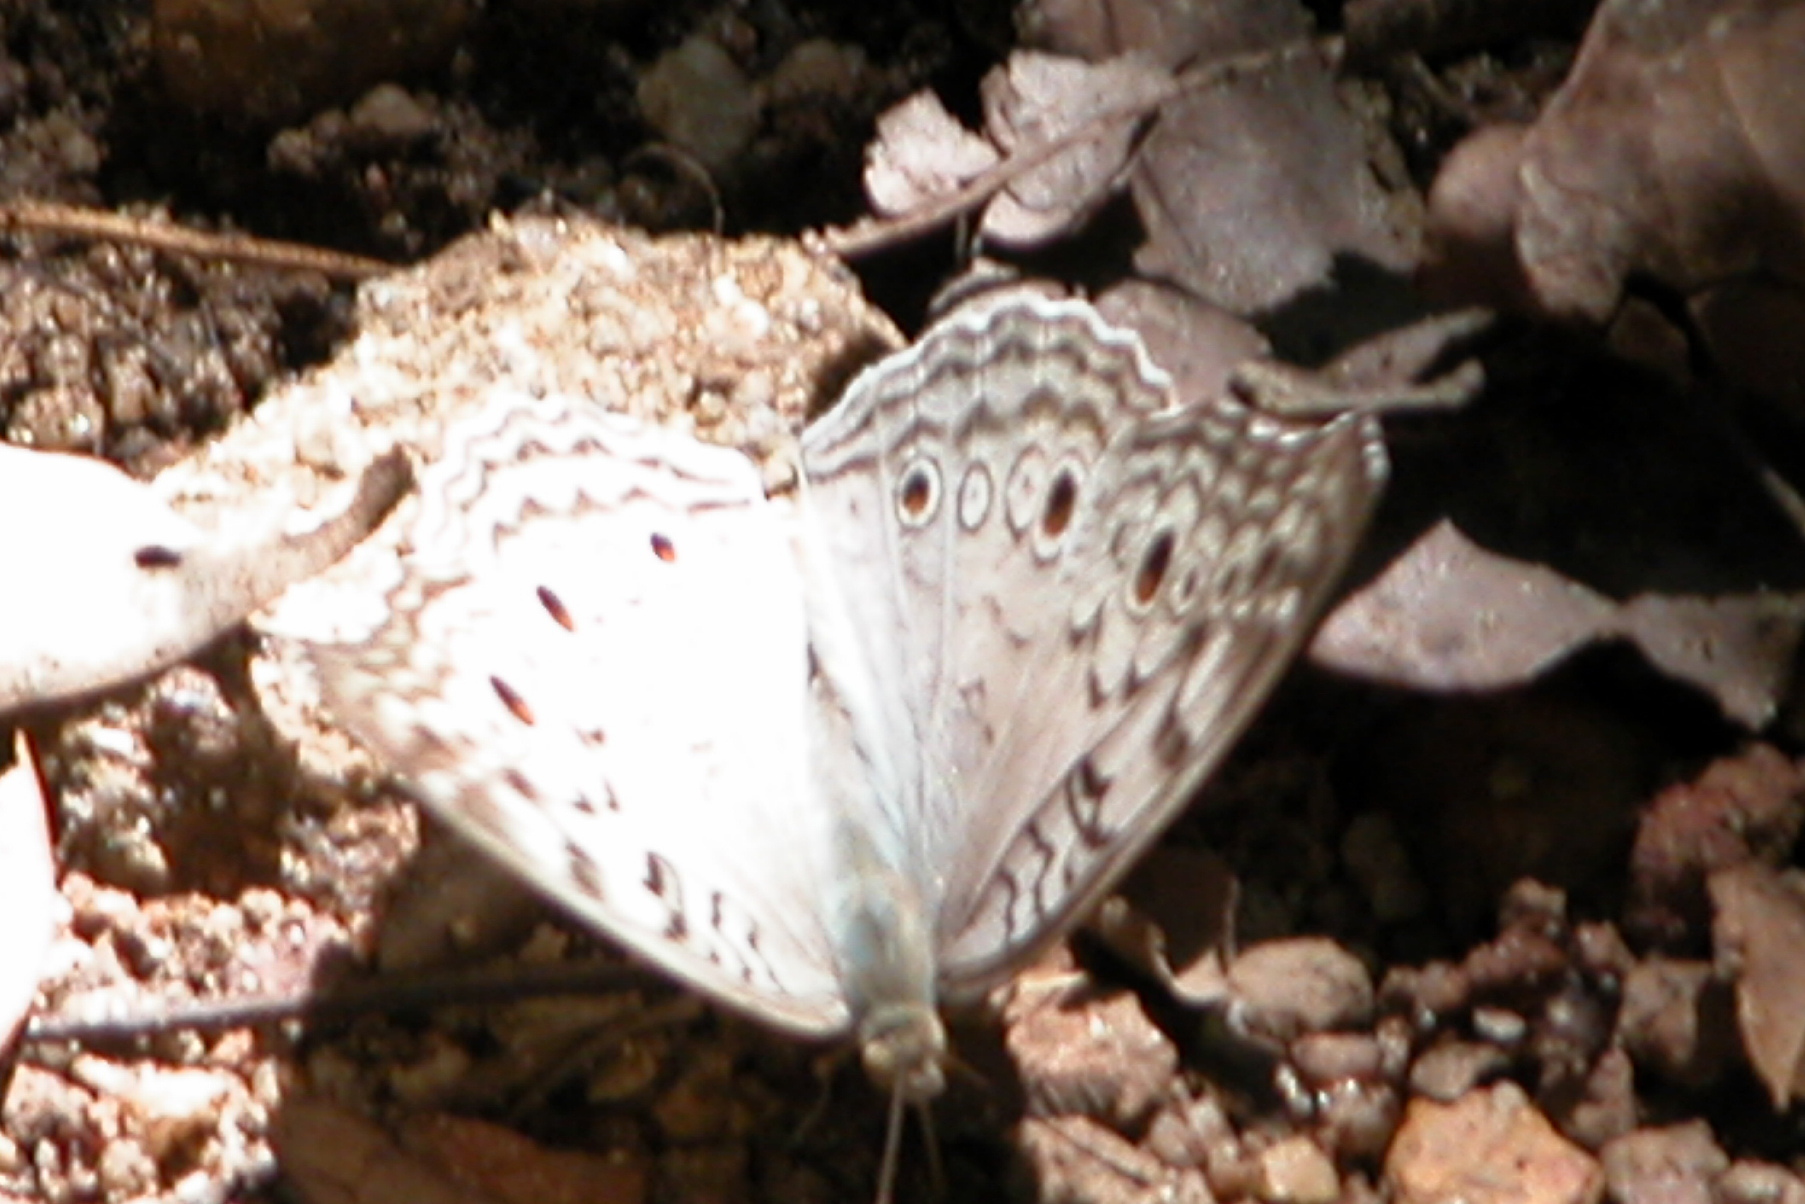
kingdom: Animalia
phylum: Arthropoda
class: Insecta
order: Lepidoptera
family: Nymphalidae
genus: Junonia
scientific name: Junonia atlites
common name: Grey pansy
